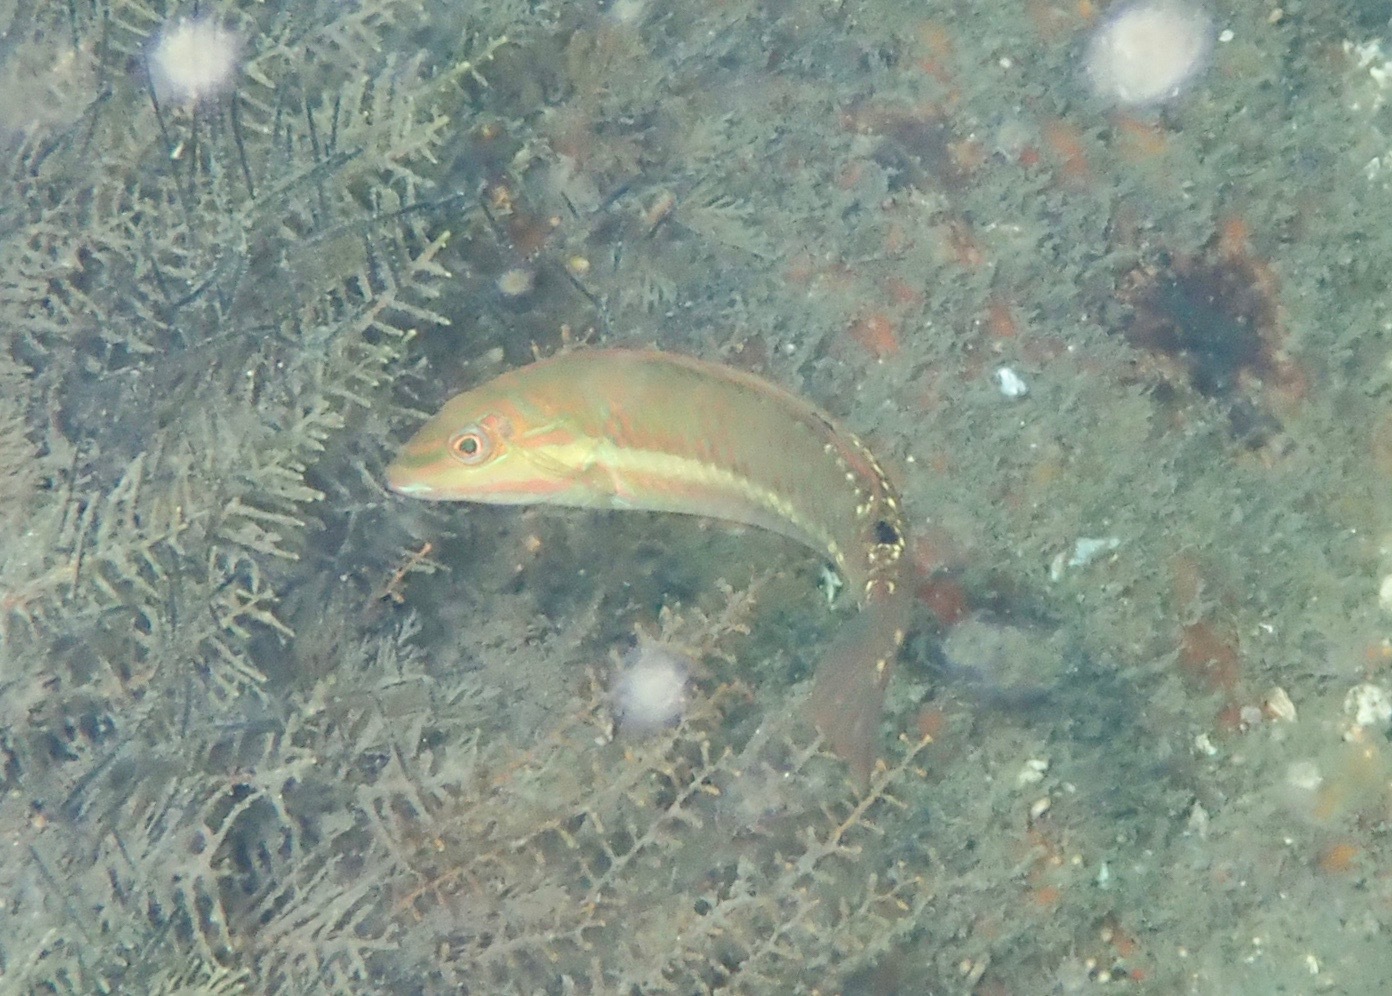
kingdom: Animalia
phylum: Chordata
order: Perciformes
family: Labridae
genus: Halichoeres
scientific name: Halichoeres poeyi
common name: Blackear wrasse
